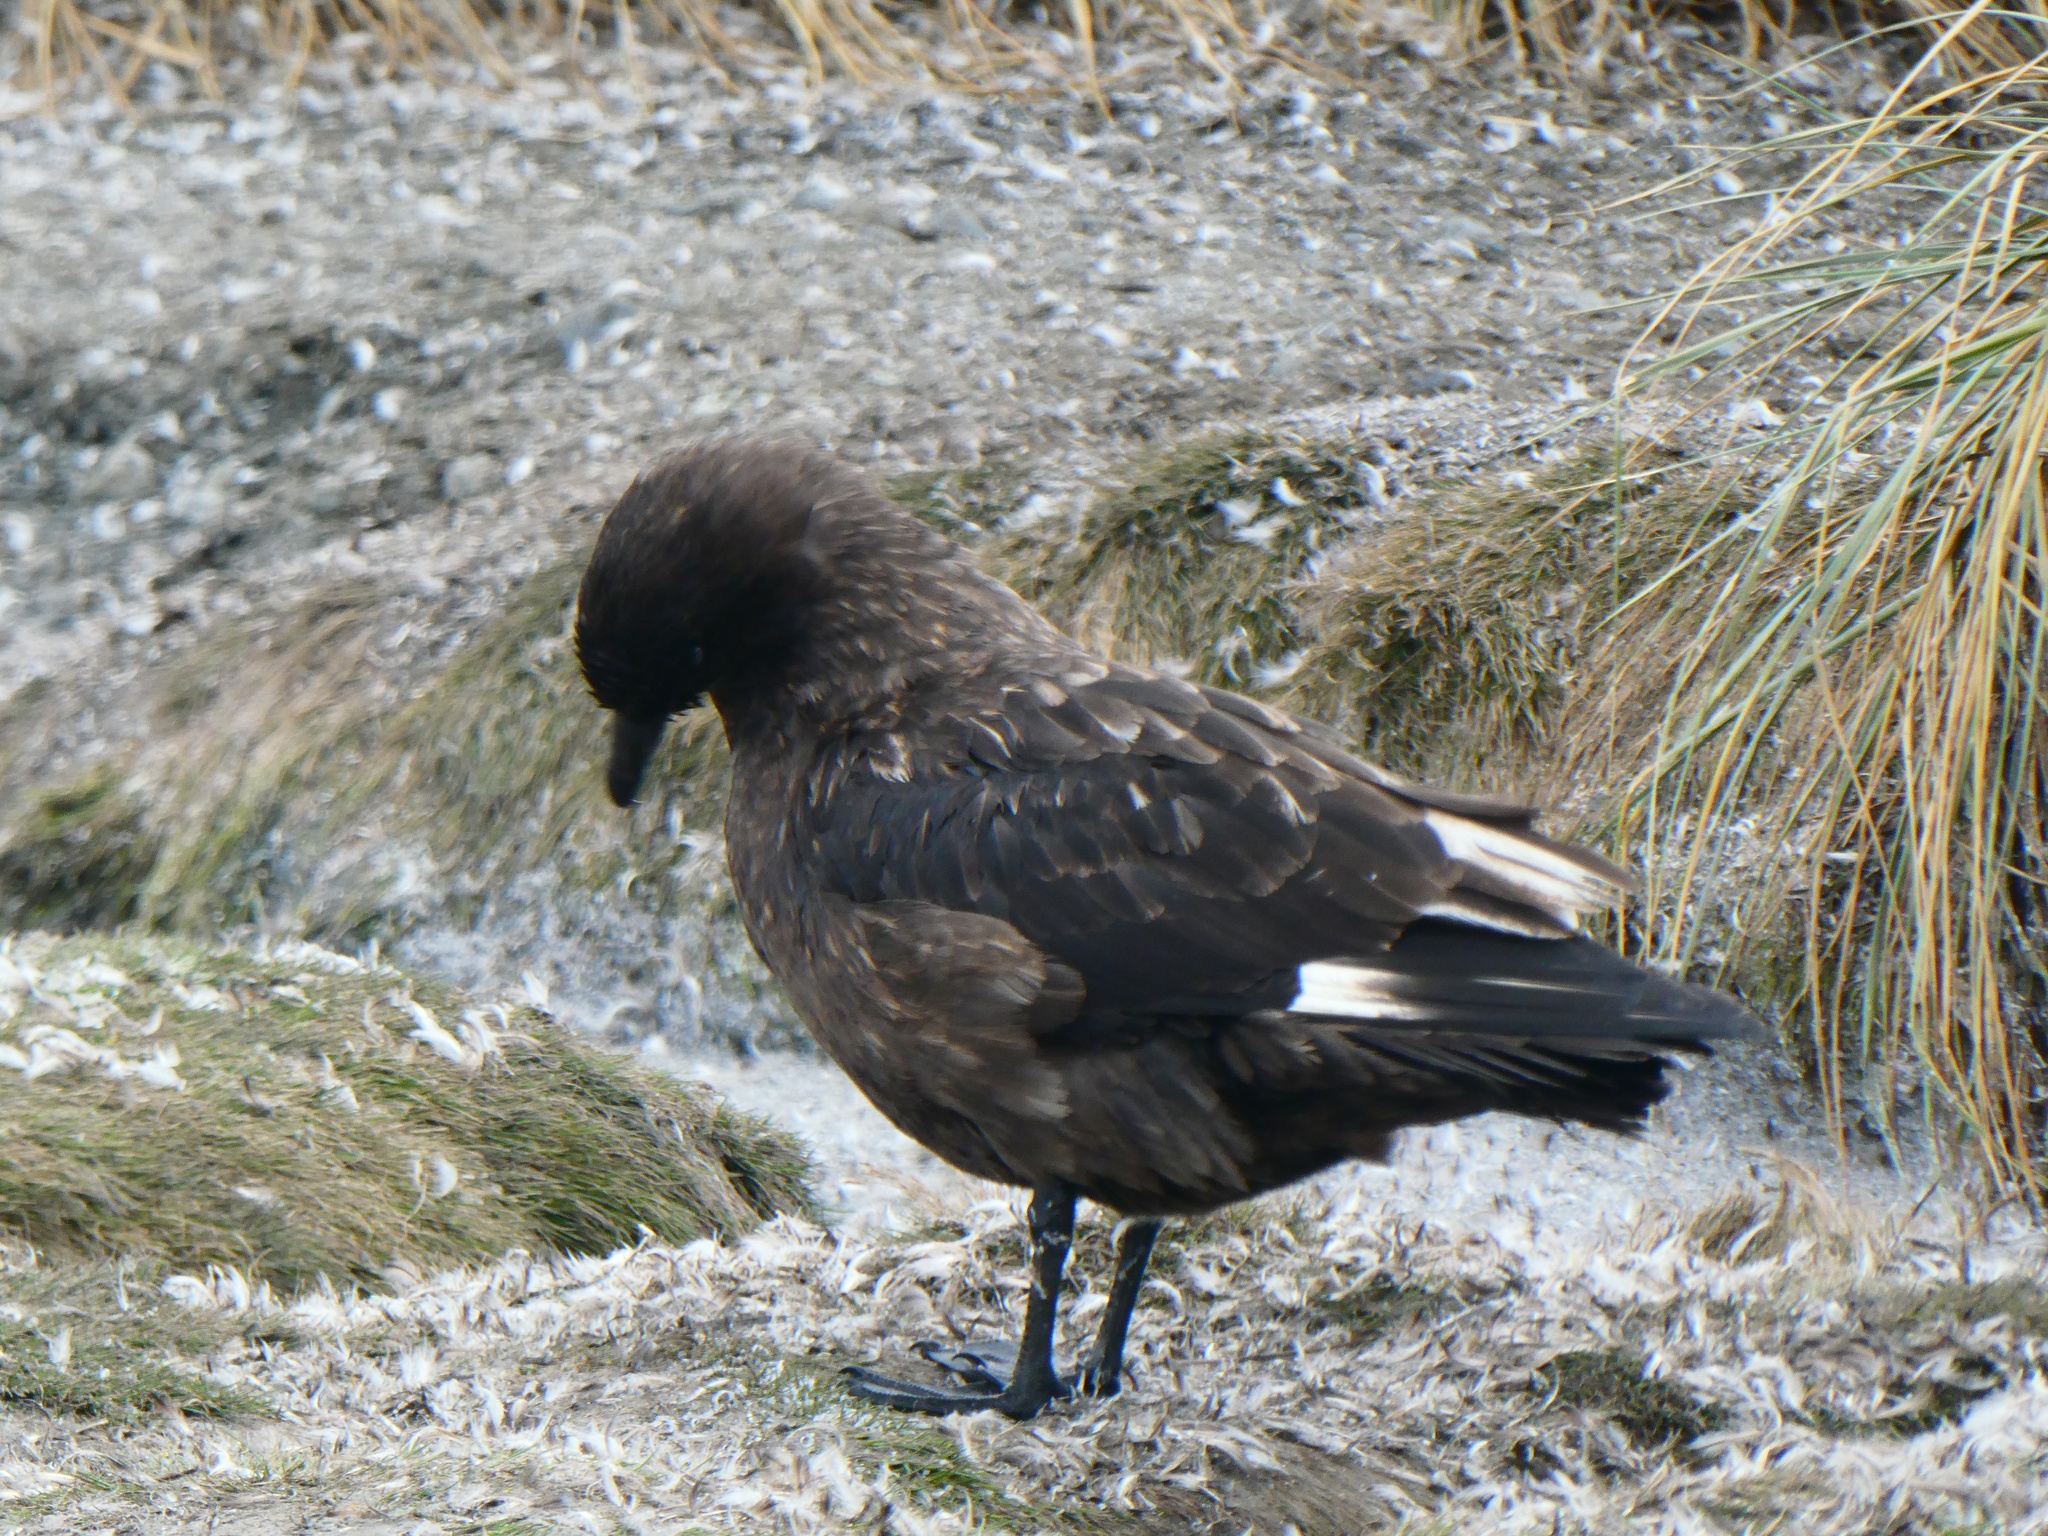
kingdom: Animalia
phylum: Chordata
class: Aves
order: Charadriiformes
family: Stercorariidae
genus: Stercorarius
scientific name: Stercorarius antarcticus
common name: Brown skua
